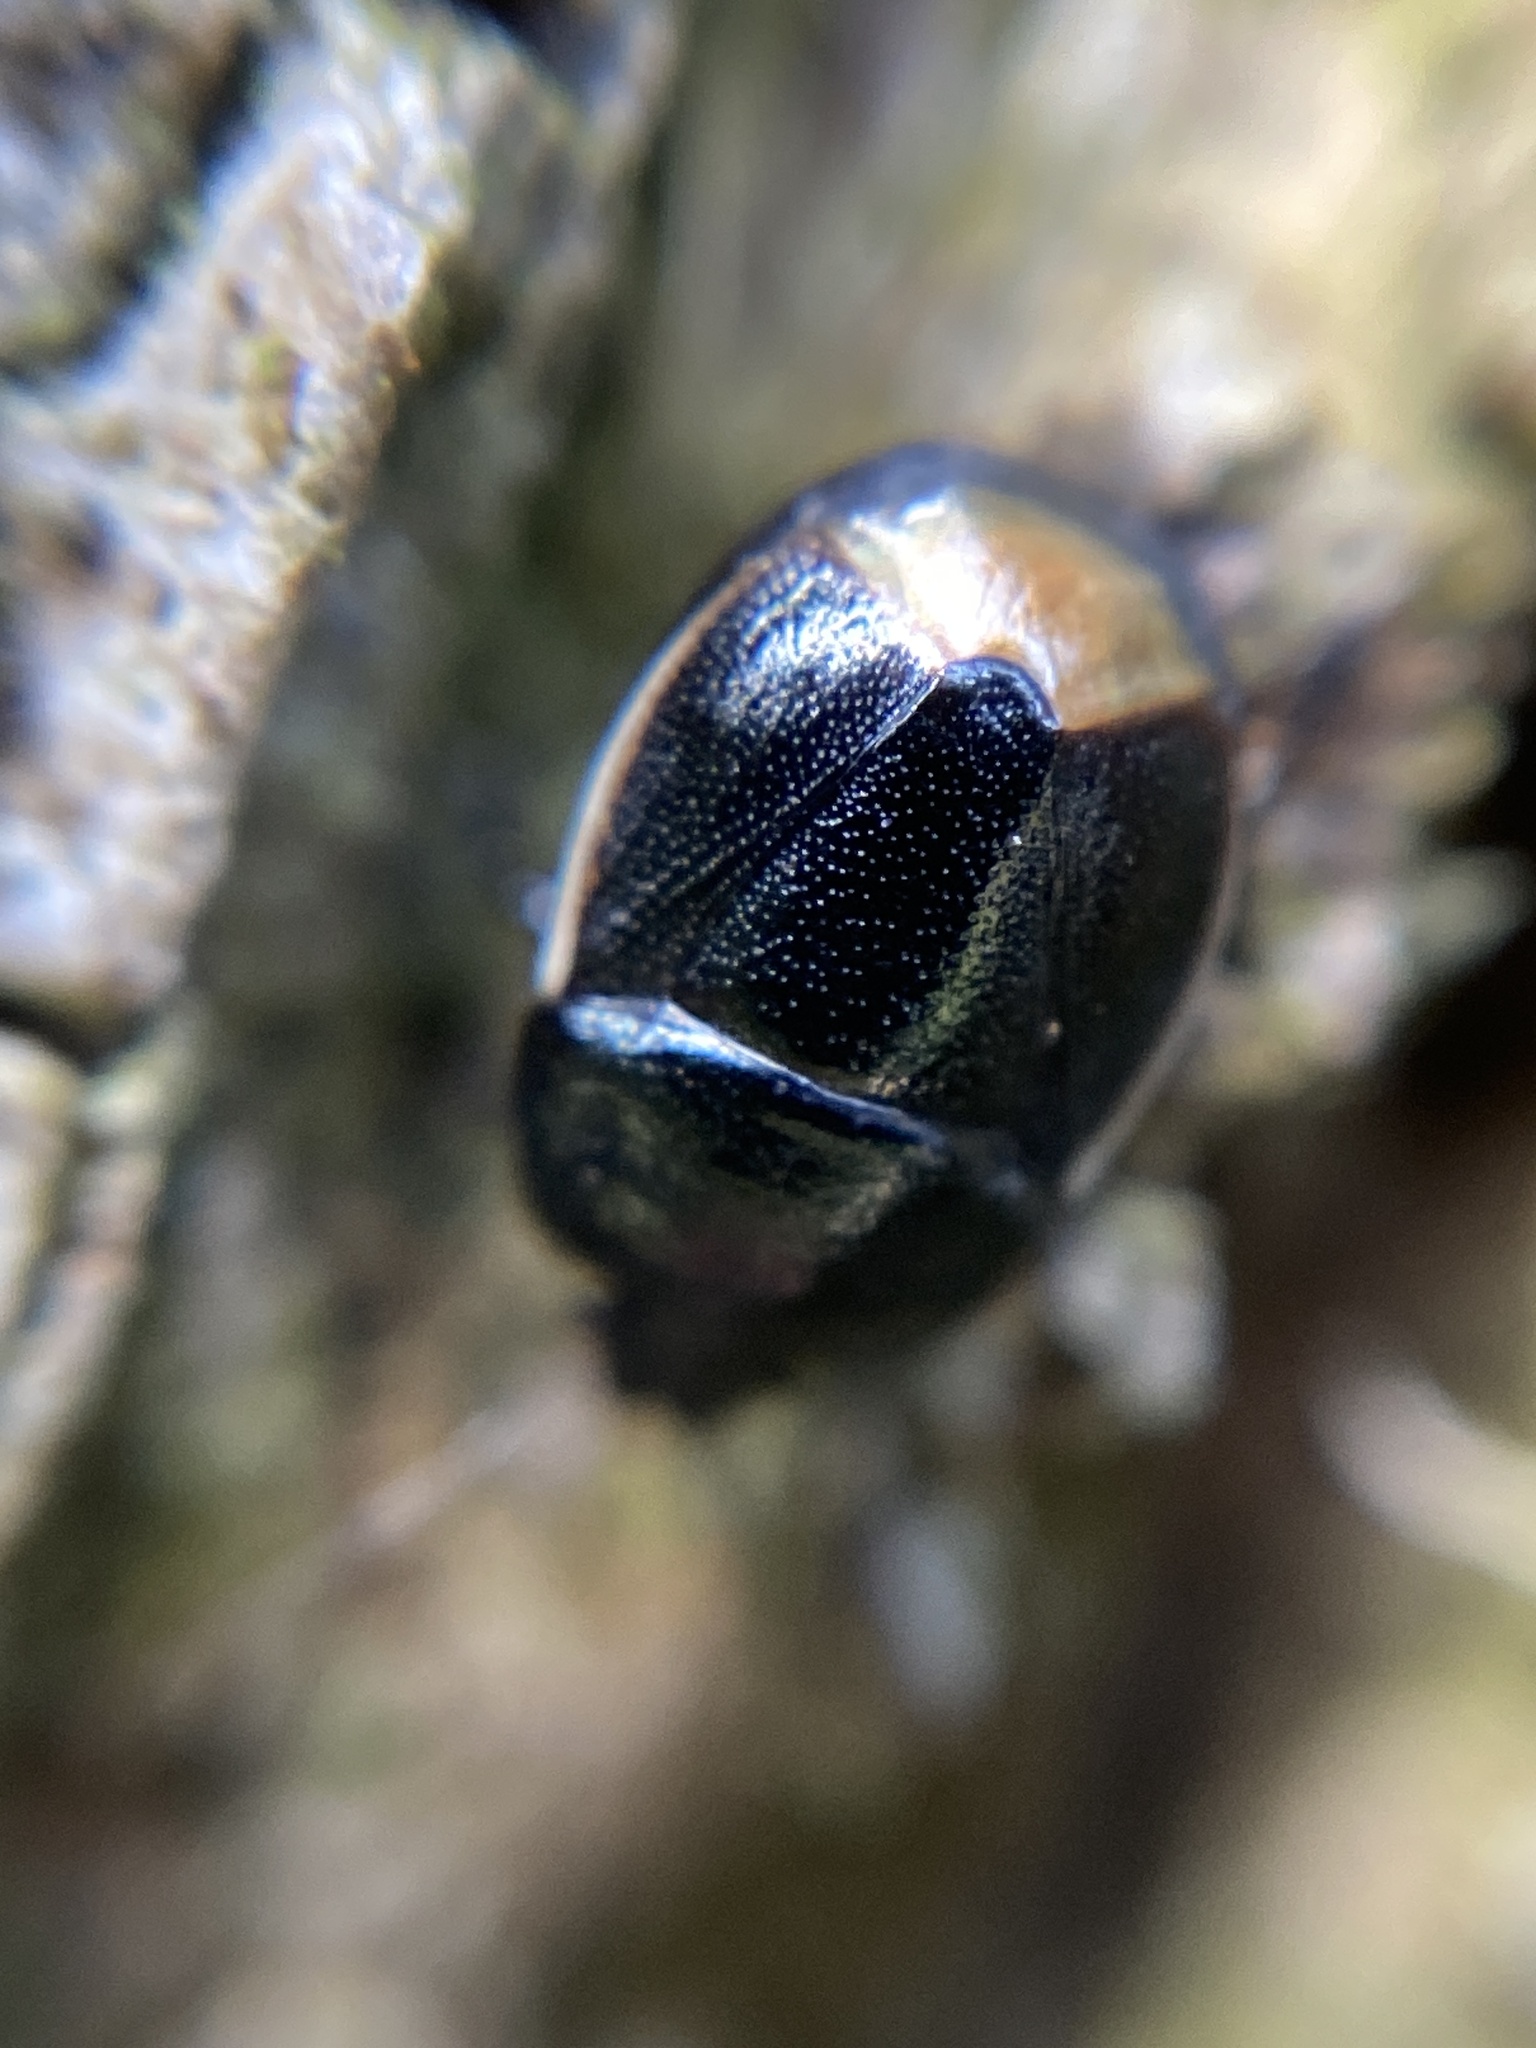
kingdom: Animalia
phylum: Arthropoda
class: Insecta
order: Hemiptera
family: Cydnidae
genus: Legnotus
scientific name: Legnotus limbosus
